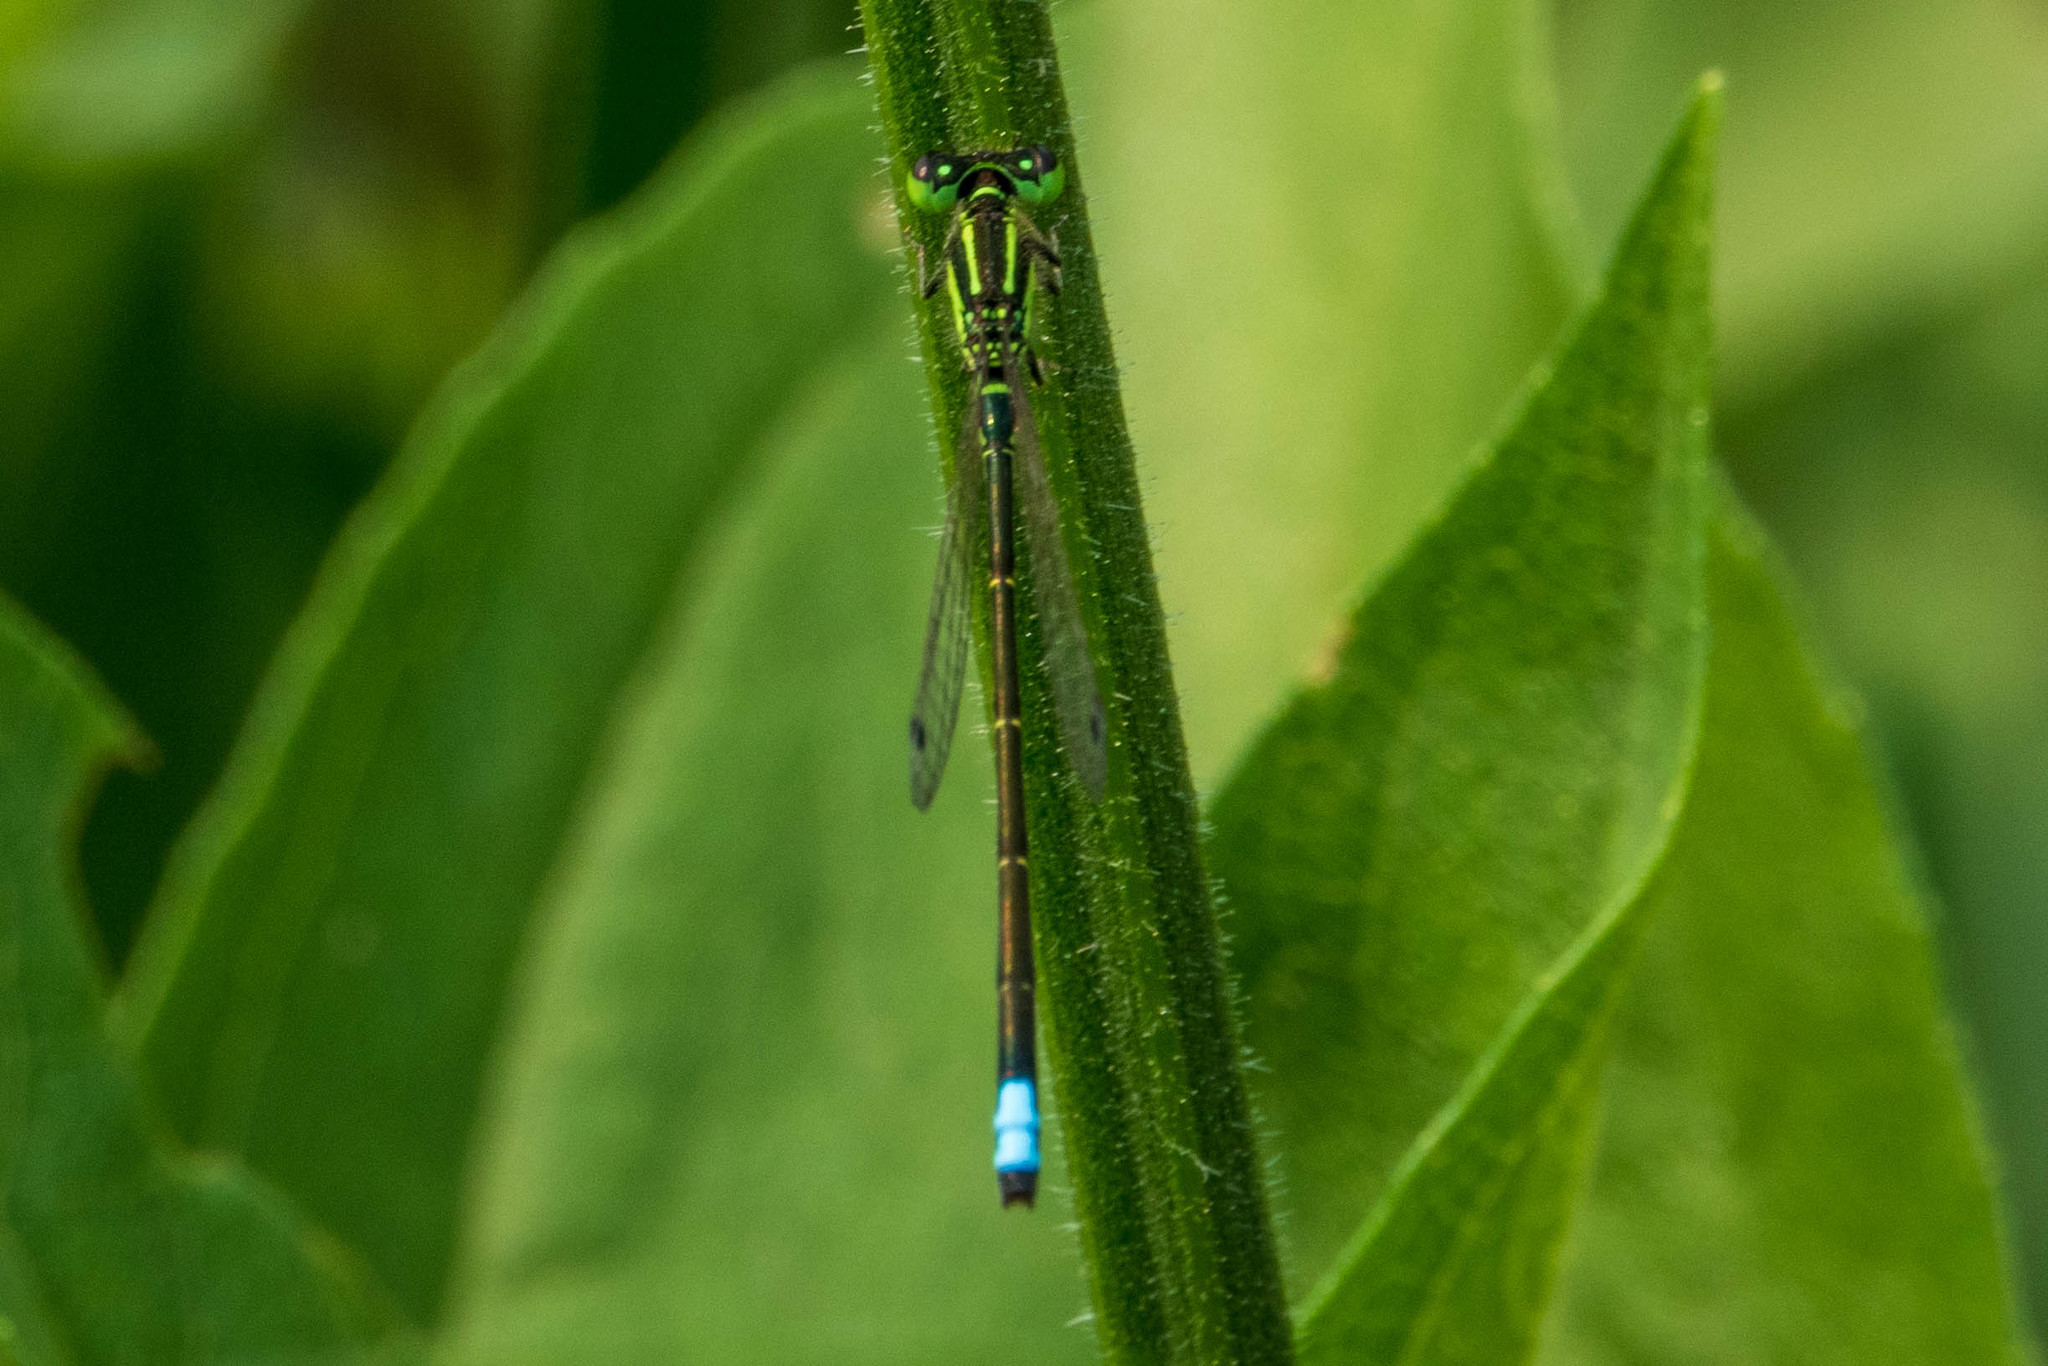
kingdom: Animalia
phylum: Arthropoda
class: Insecta
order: Odonata
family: Coenagrionidae
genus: Ischnura
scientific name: Ischnura verticalis
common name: Eastern forktail
